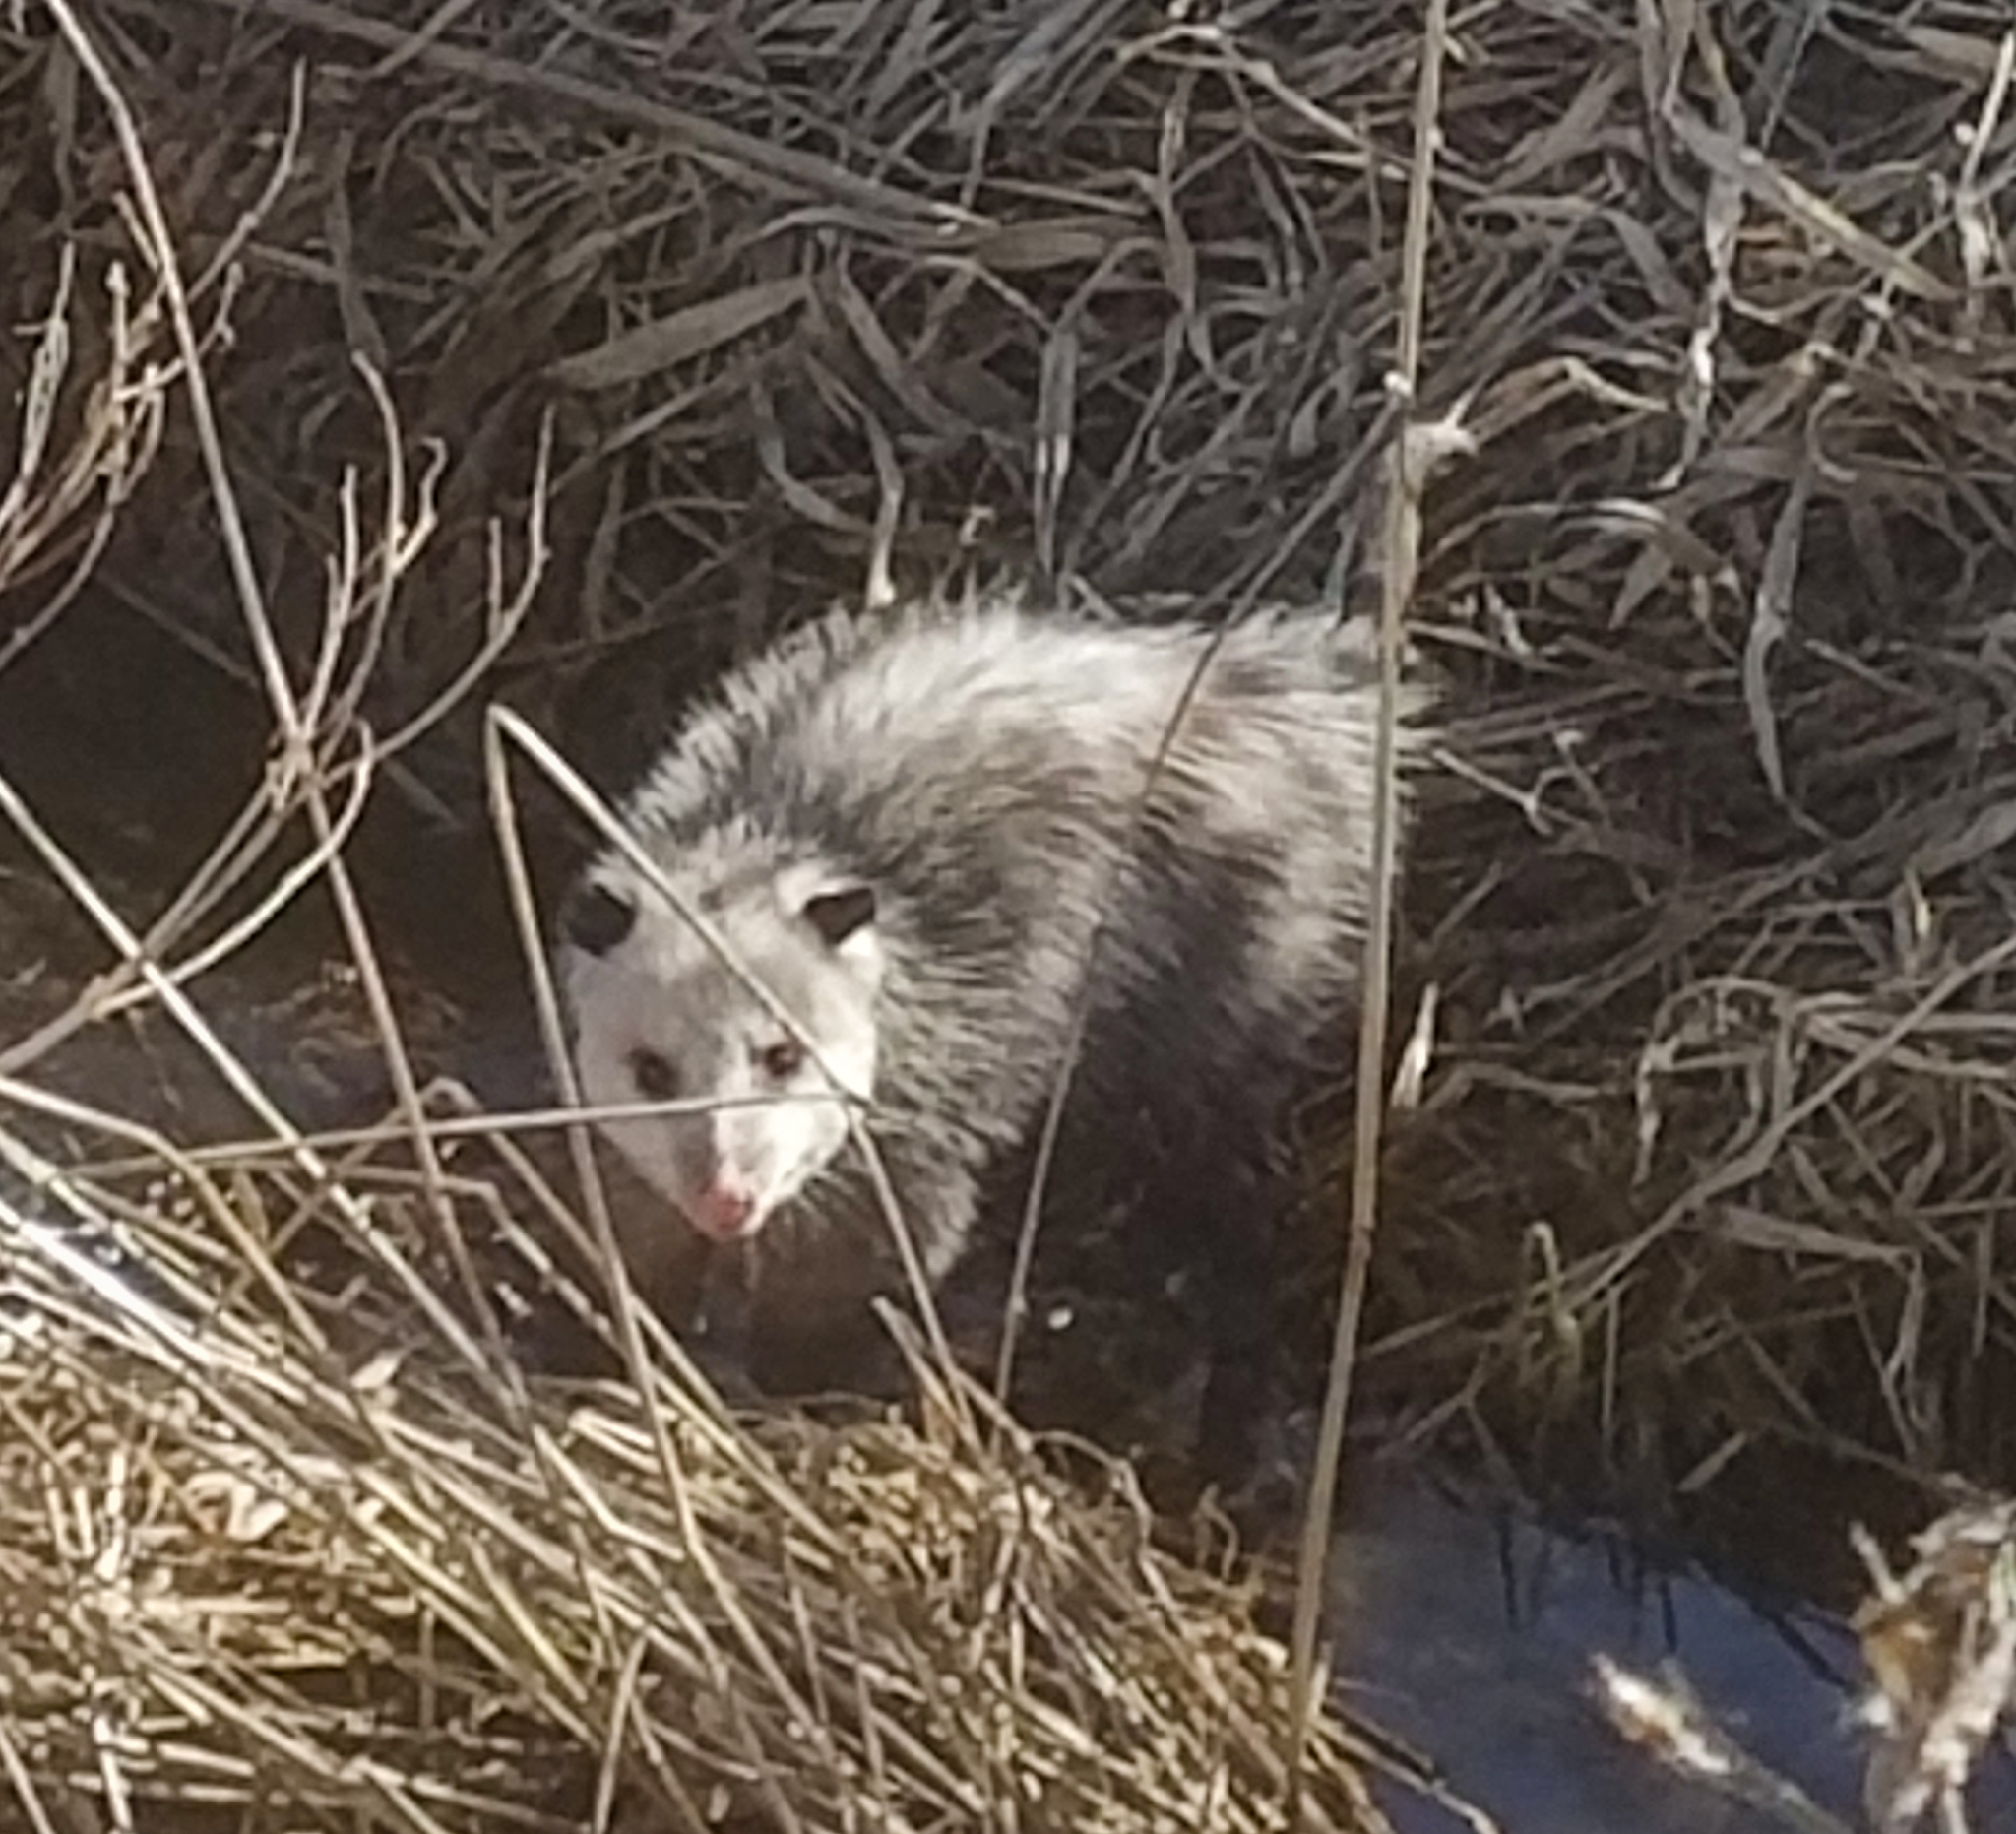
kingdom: Animalia
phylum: Chordata
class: Mammalia
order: Didelphimorphia
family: Didelphidae
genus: Didelphis
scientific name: Didelphis virginiana
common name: Virginia opossum
